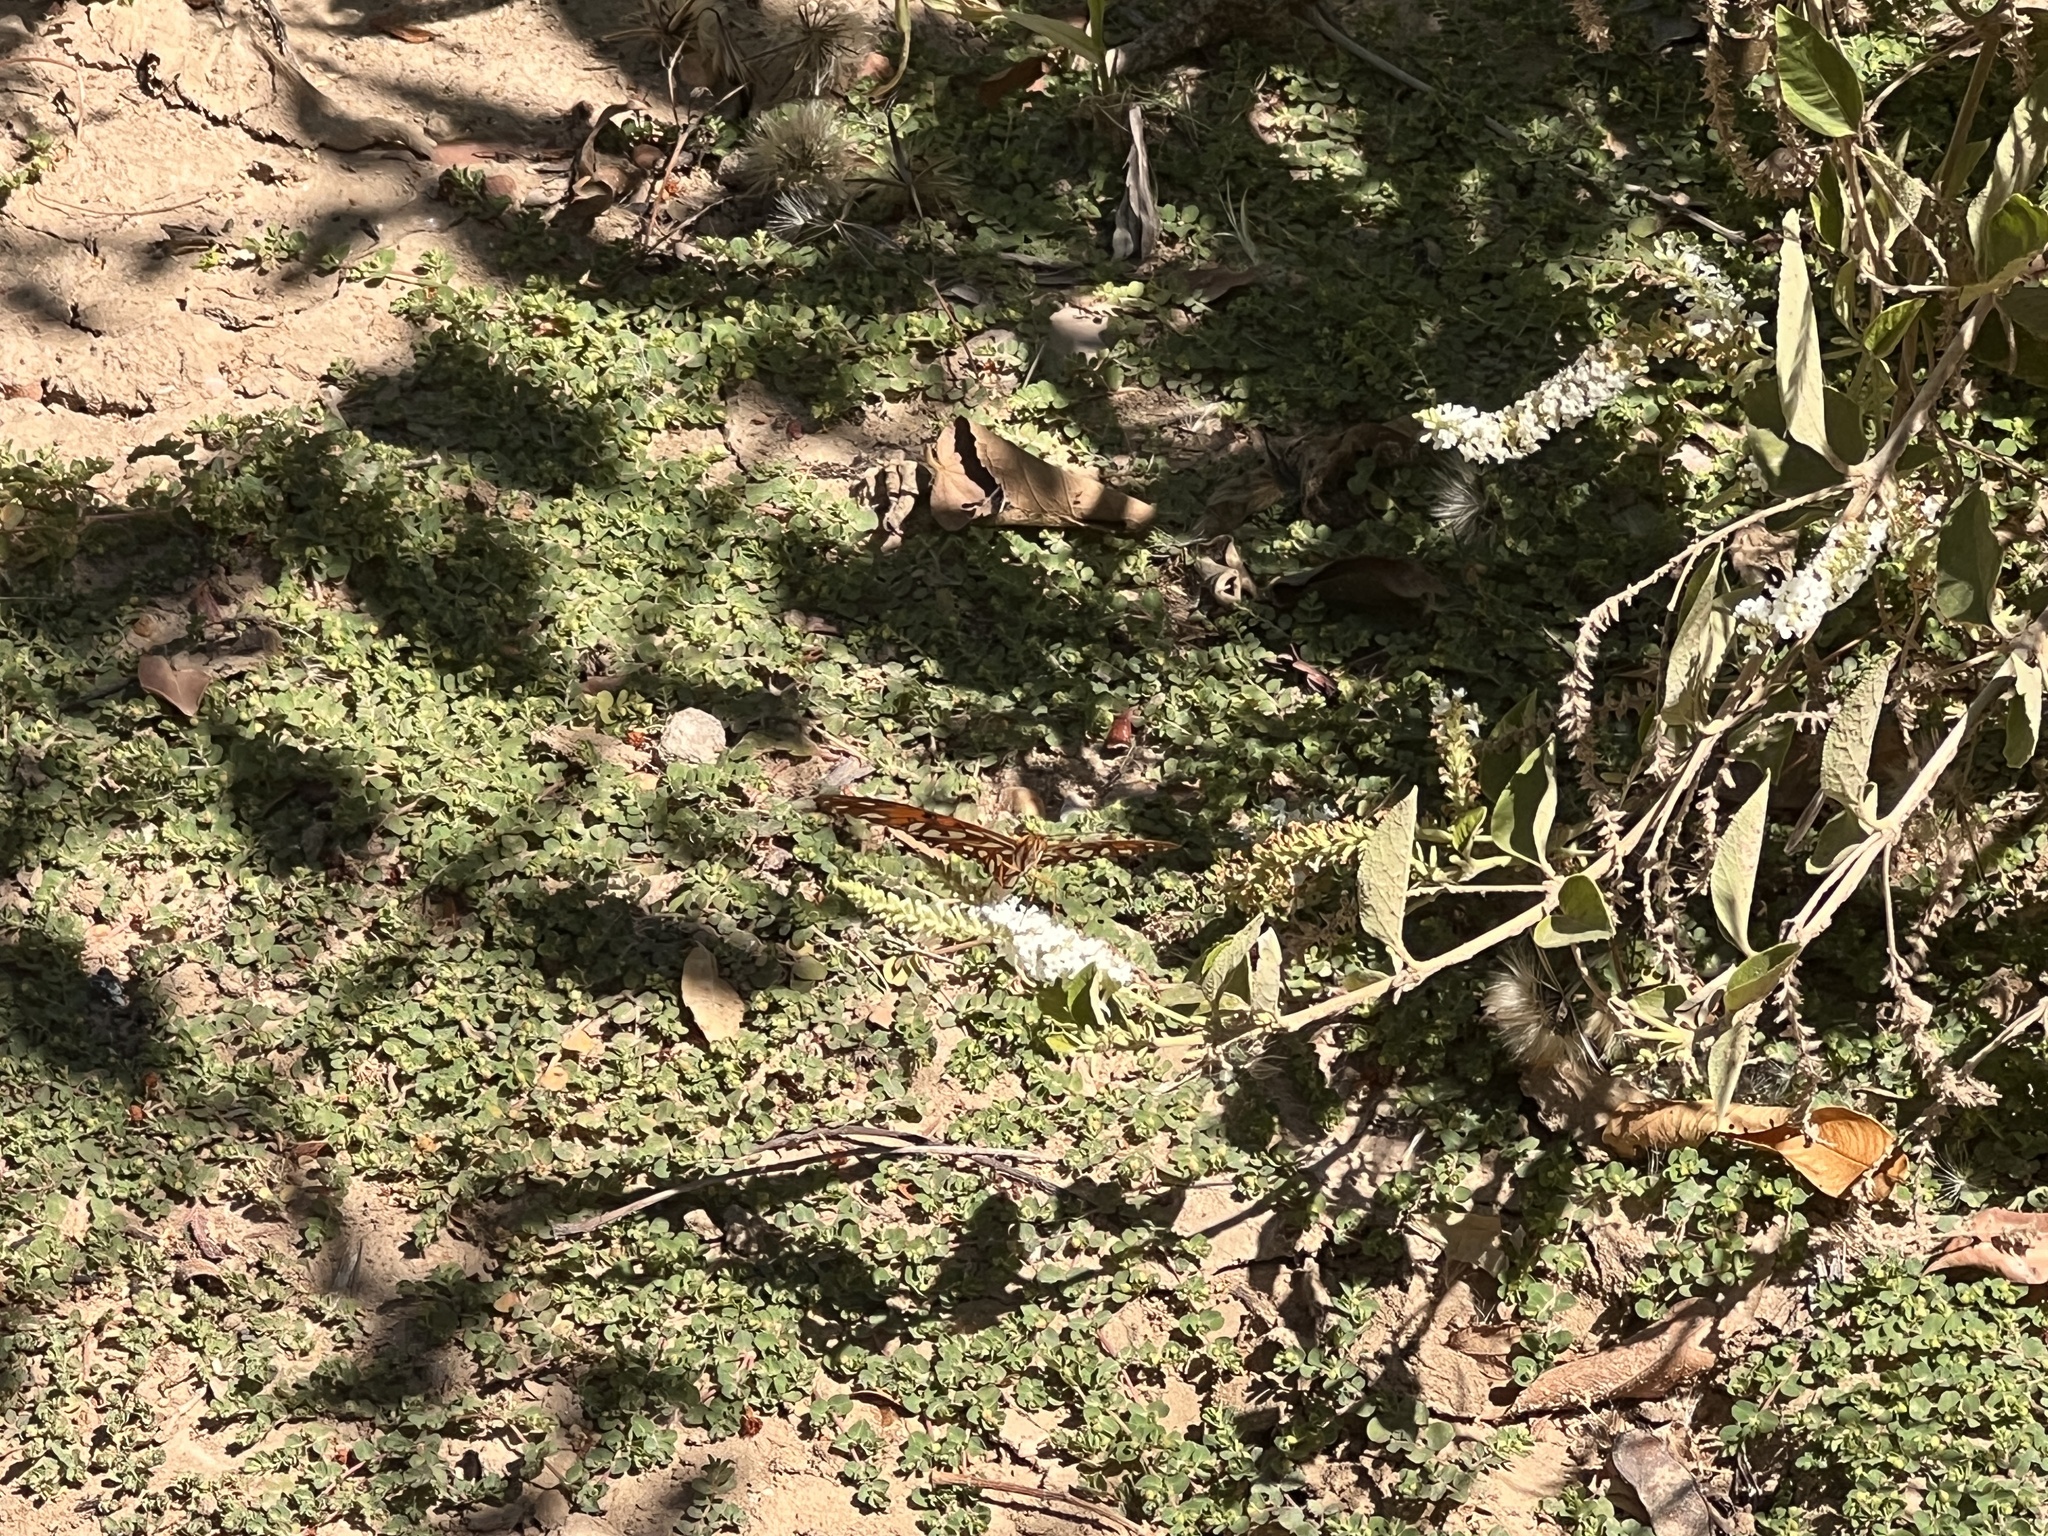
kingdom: Animalia
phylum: Arthropoda
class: Insecta
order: Lepidoptera
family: Nymphalidae
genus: Dione
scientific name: Dione vanillae
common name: Gulf fritillary
